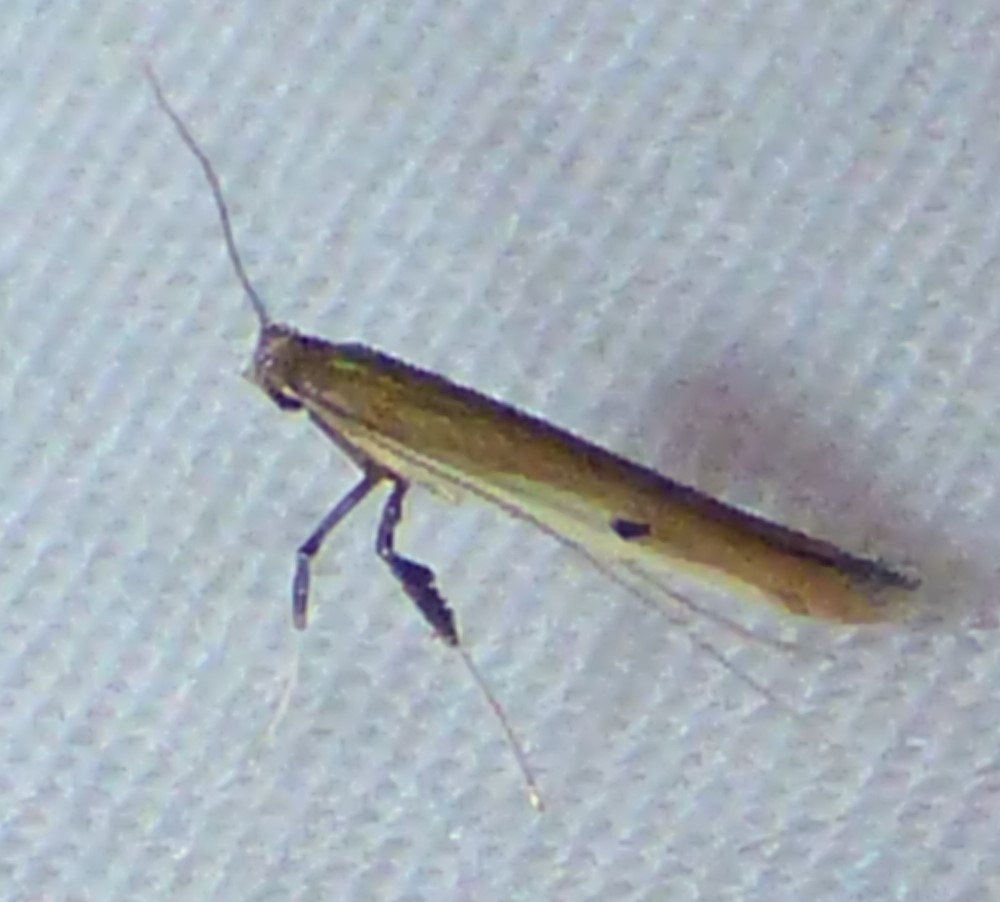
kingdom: Animalia
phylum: Arthropoda
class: Insecta
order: Lepidoptera
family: Gracillariidae
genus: Caloptilia
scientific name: Caloptilia violacella
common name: Tick-trefoil caloptilia moth
